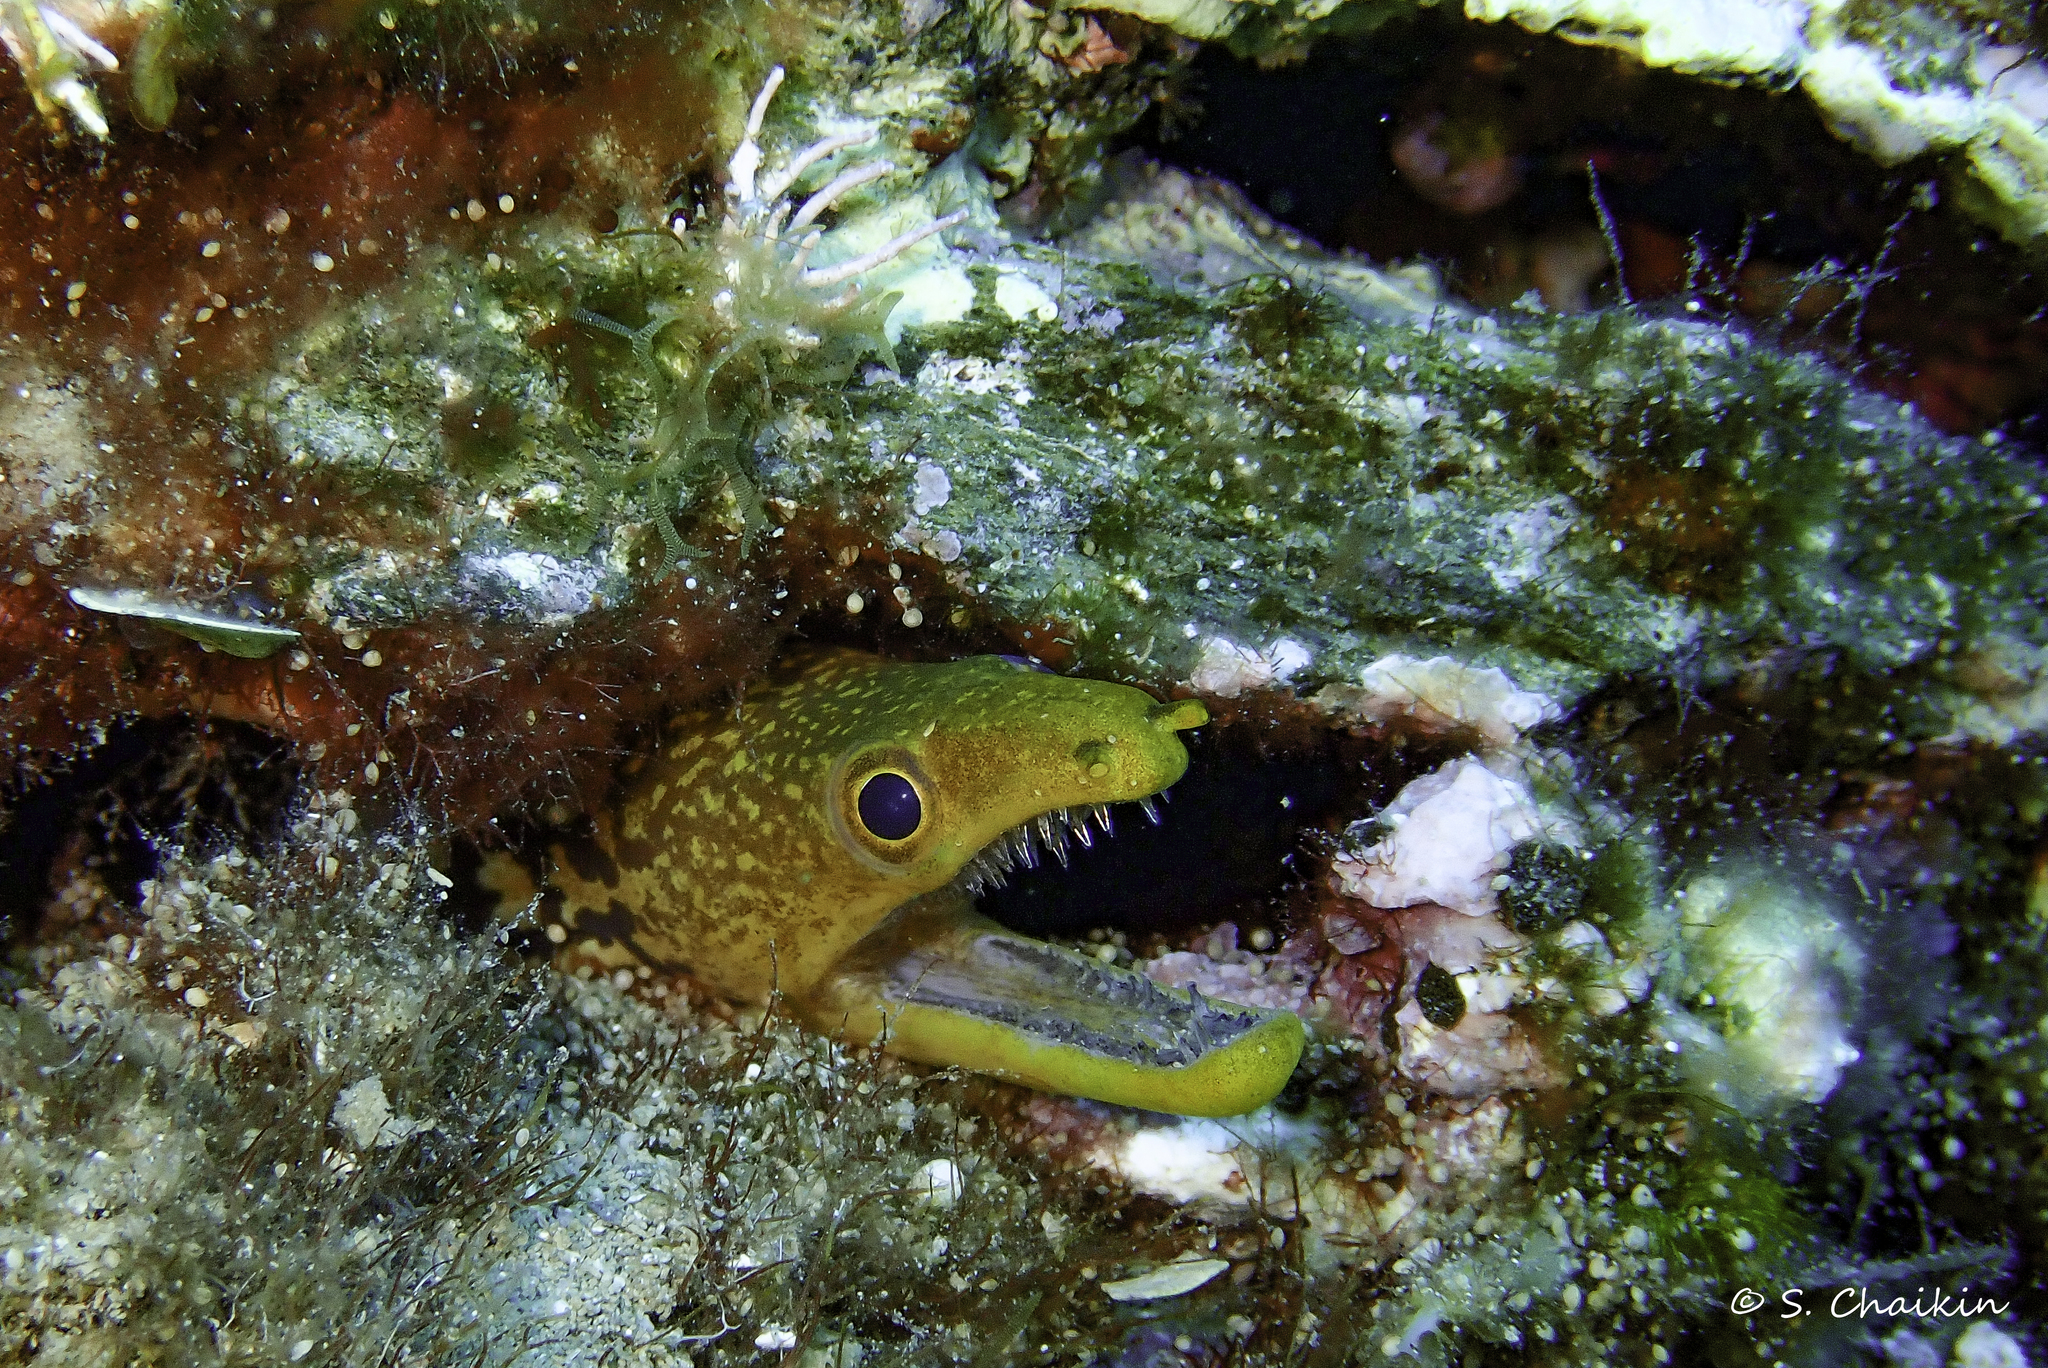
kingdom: Animalia
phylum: Chordata
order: Anguilliformes
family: Muraenidae
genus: Enchelycore
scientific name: Enchelycore anatina
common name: Fangtooth moray
